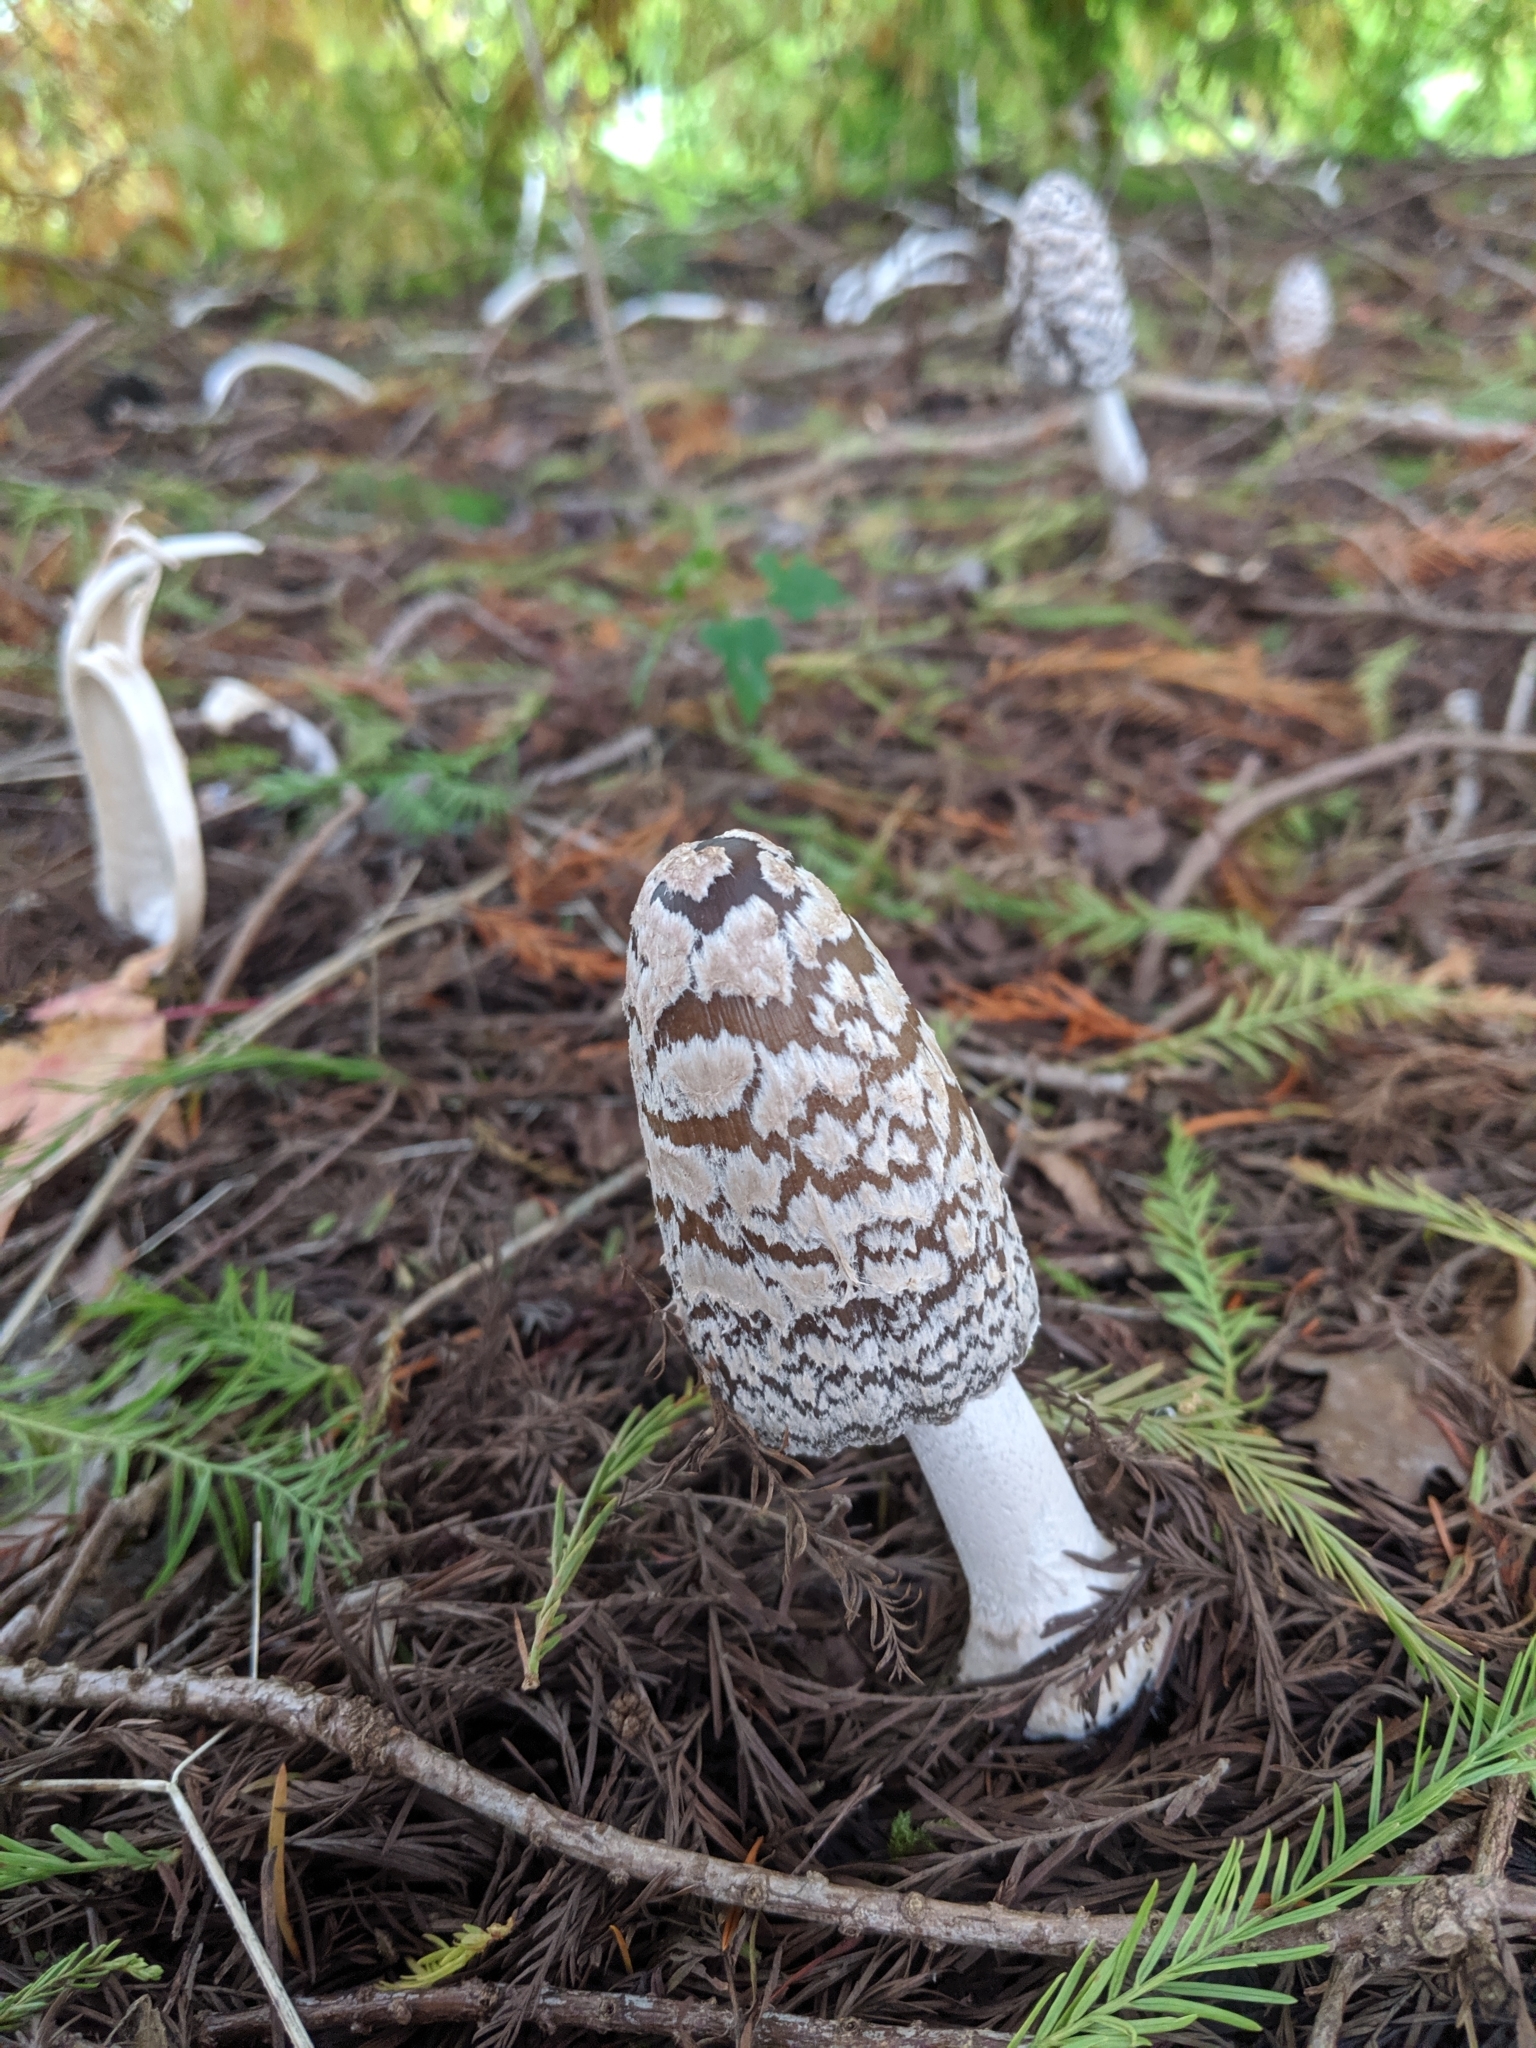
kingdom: Fungi
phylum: Basidiomycota
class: Agaricomycetes
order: Agaricales
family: Psathyrellaceae
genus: Coprinopsis
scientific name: Coprinopsis picacea
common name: Magpie inkcap
